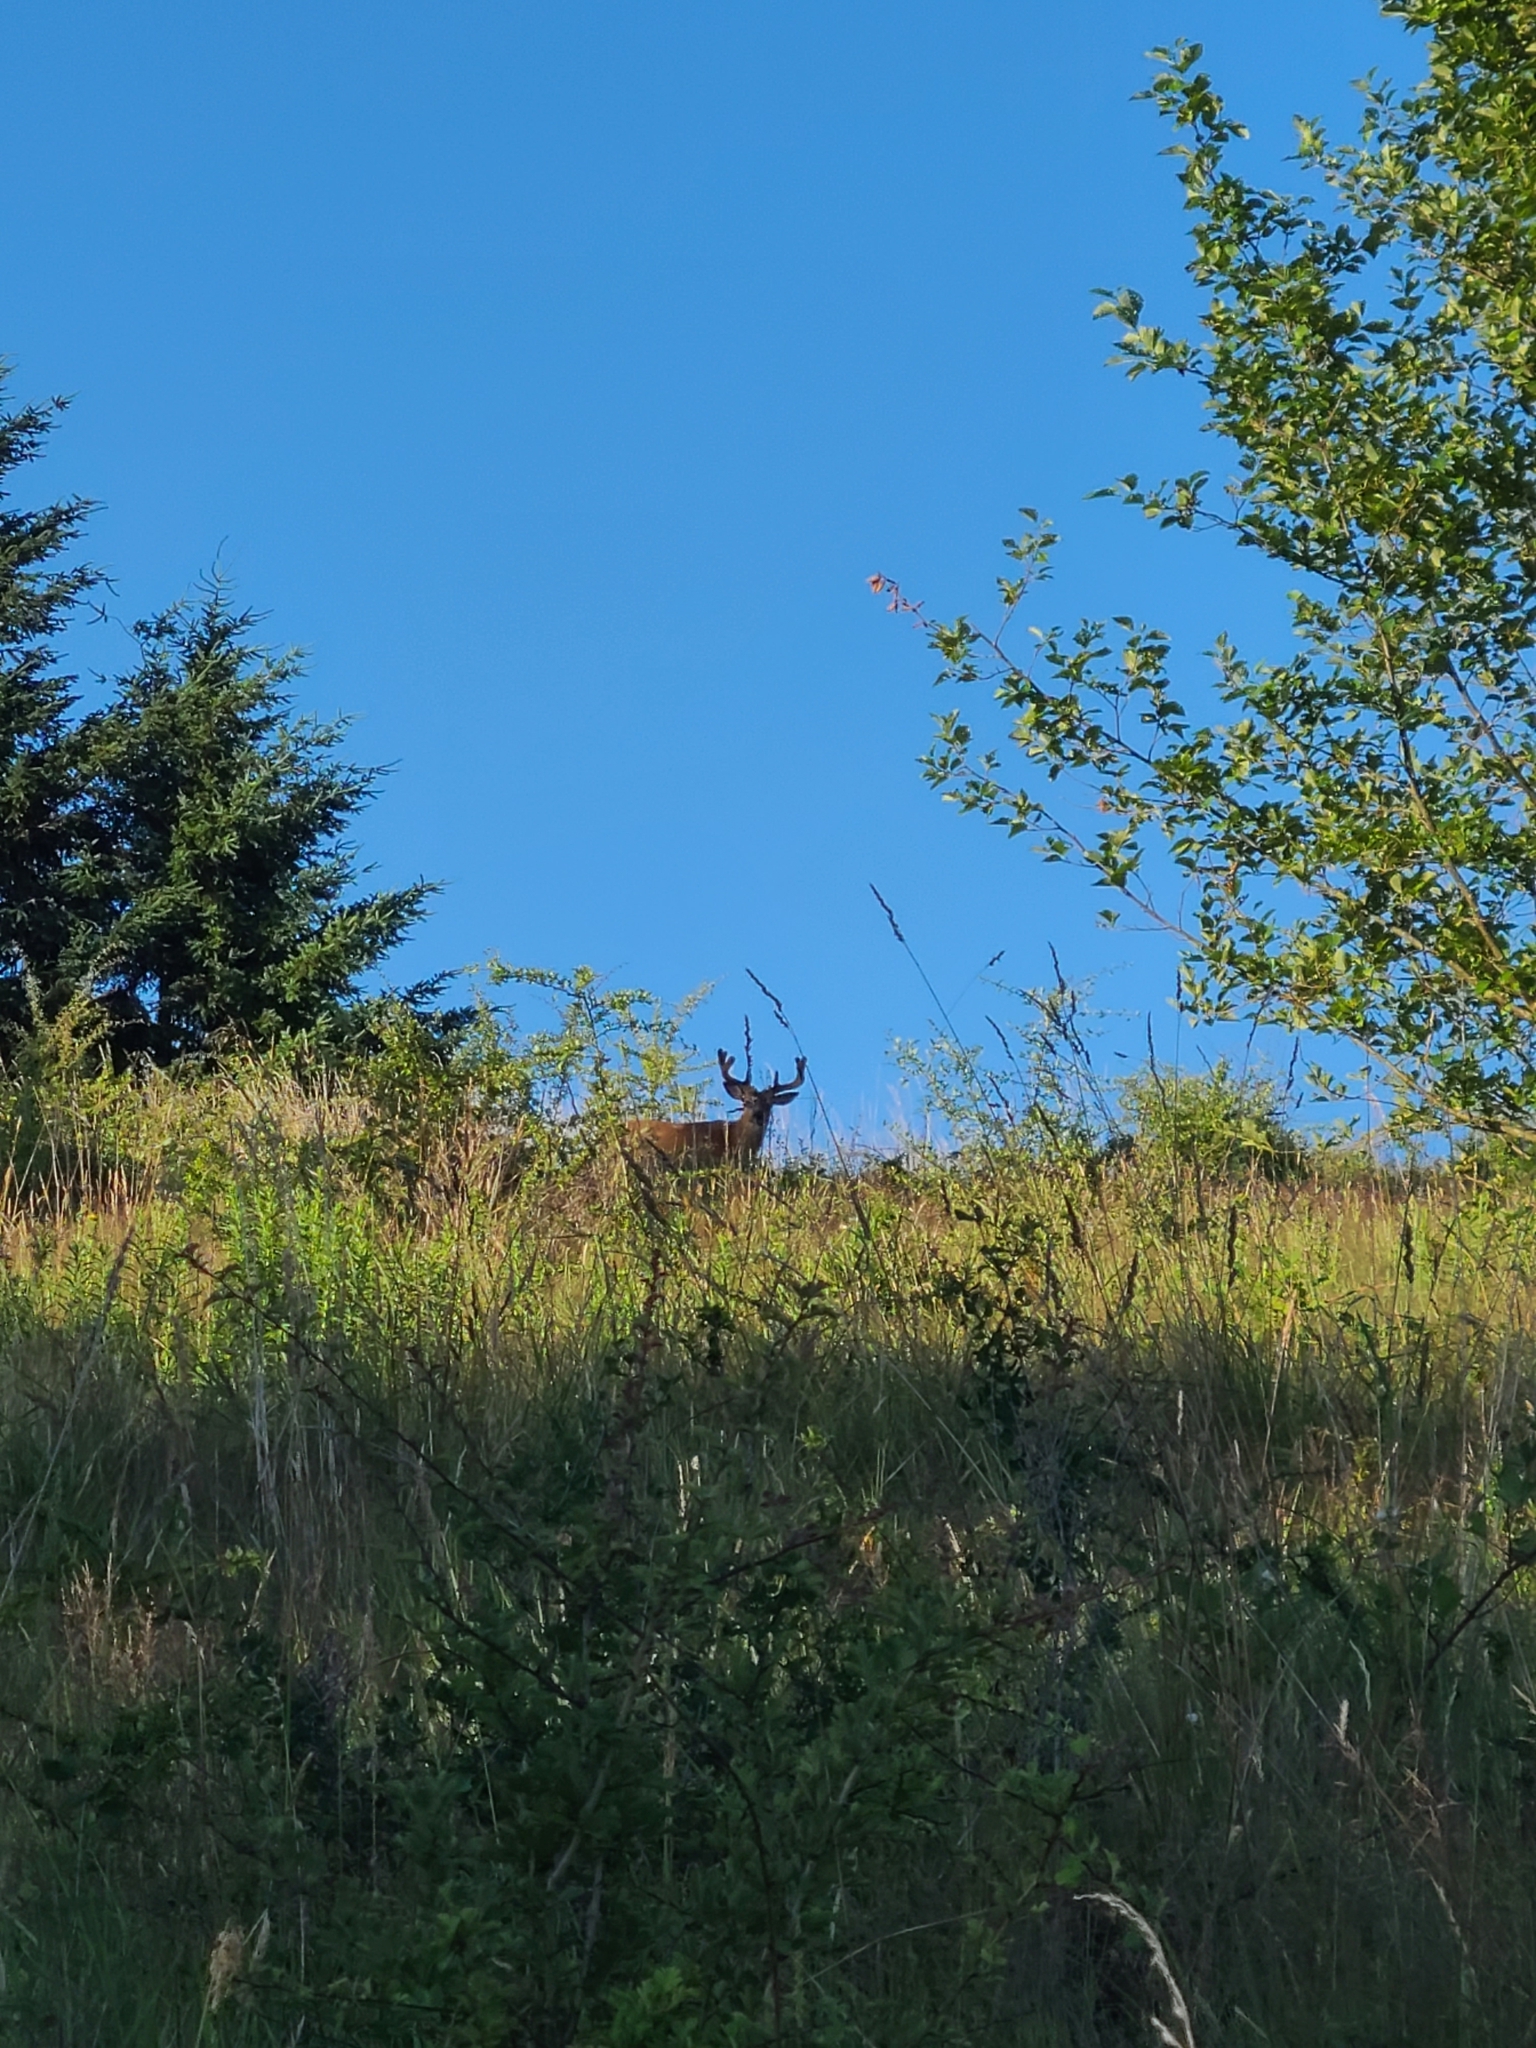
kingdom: Animalia
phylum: Chordata
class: Mammalia
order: Artiodactyla
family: Cervidae
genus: Odocoileus
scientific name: Odocoileus hemionus
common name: Mule deer
